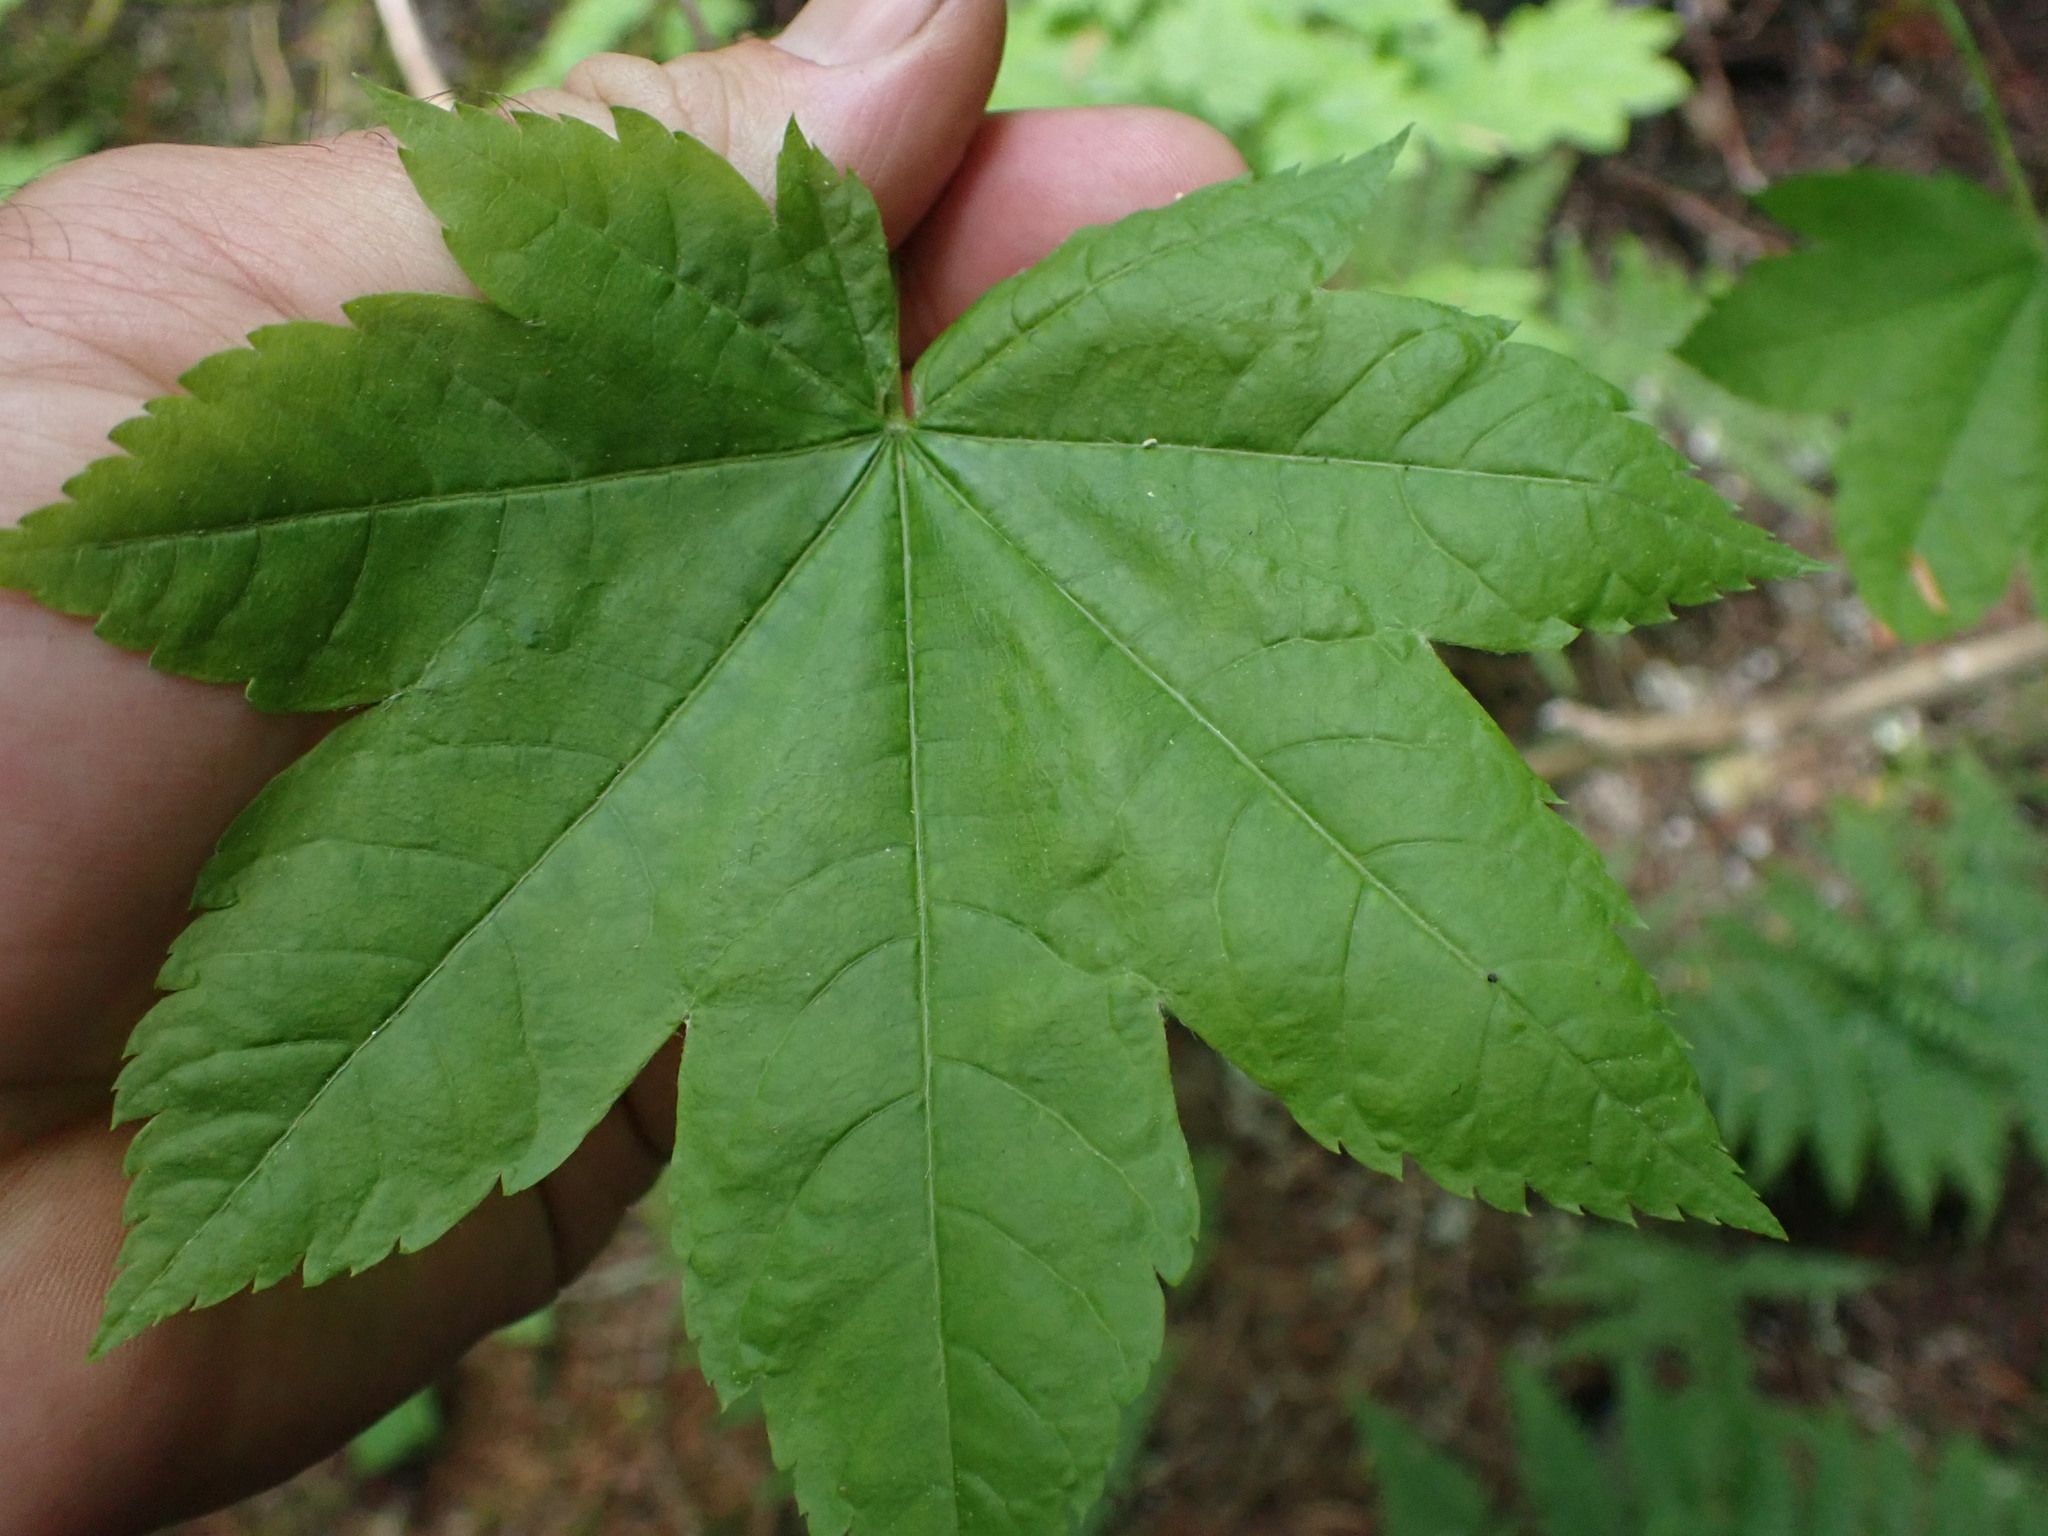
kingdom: Plantae
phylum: Tracheophyta
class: Magnoliopsida
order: Sapindales
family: Sapindaceae
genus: Acer
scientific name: Acer circinatum
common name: Vine maple
